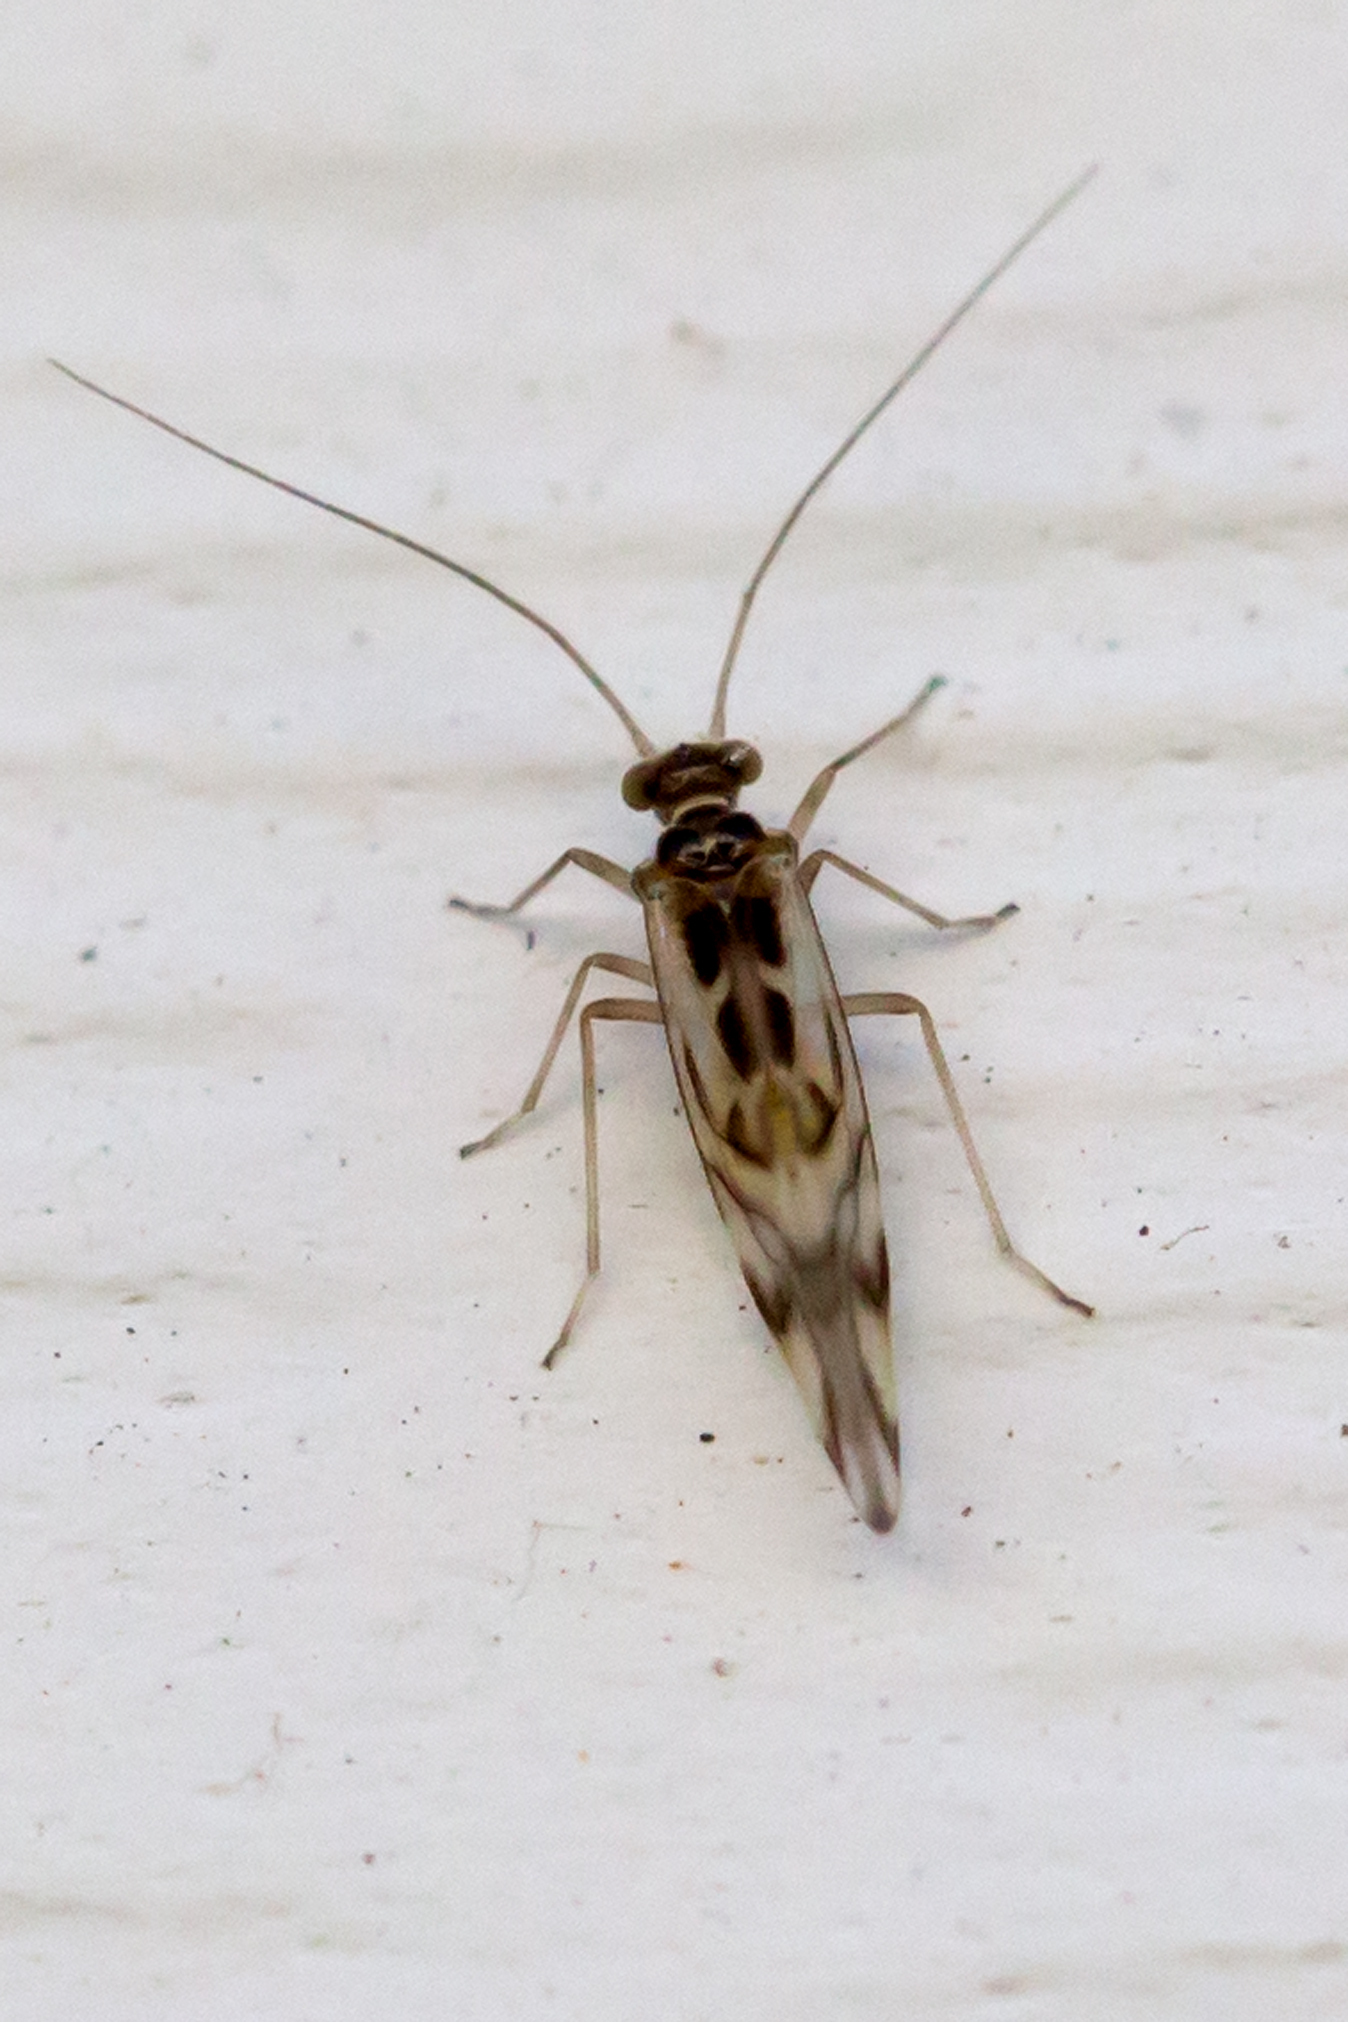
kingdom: Animalia
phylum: Arthropoda
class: Insecta
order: Psocodea
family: Stenopsocidae
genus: Graphopsocus
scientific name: Graphopsocus cruciatus
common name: Lizard bark louse
